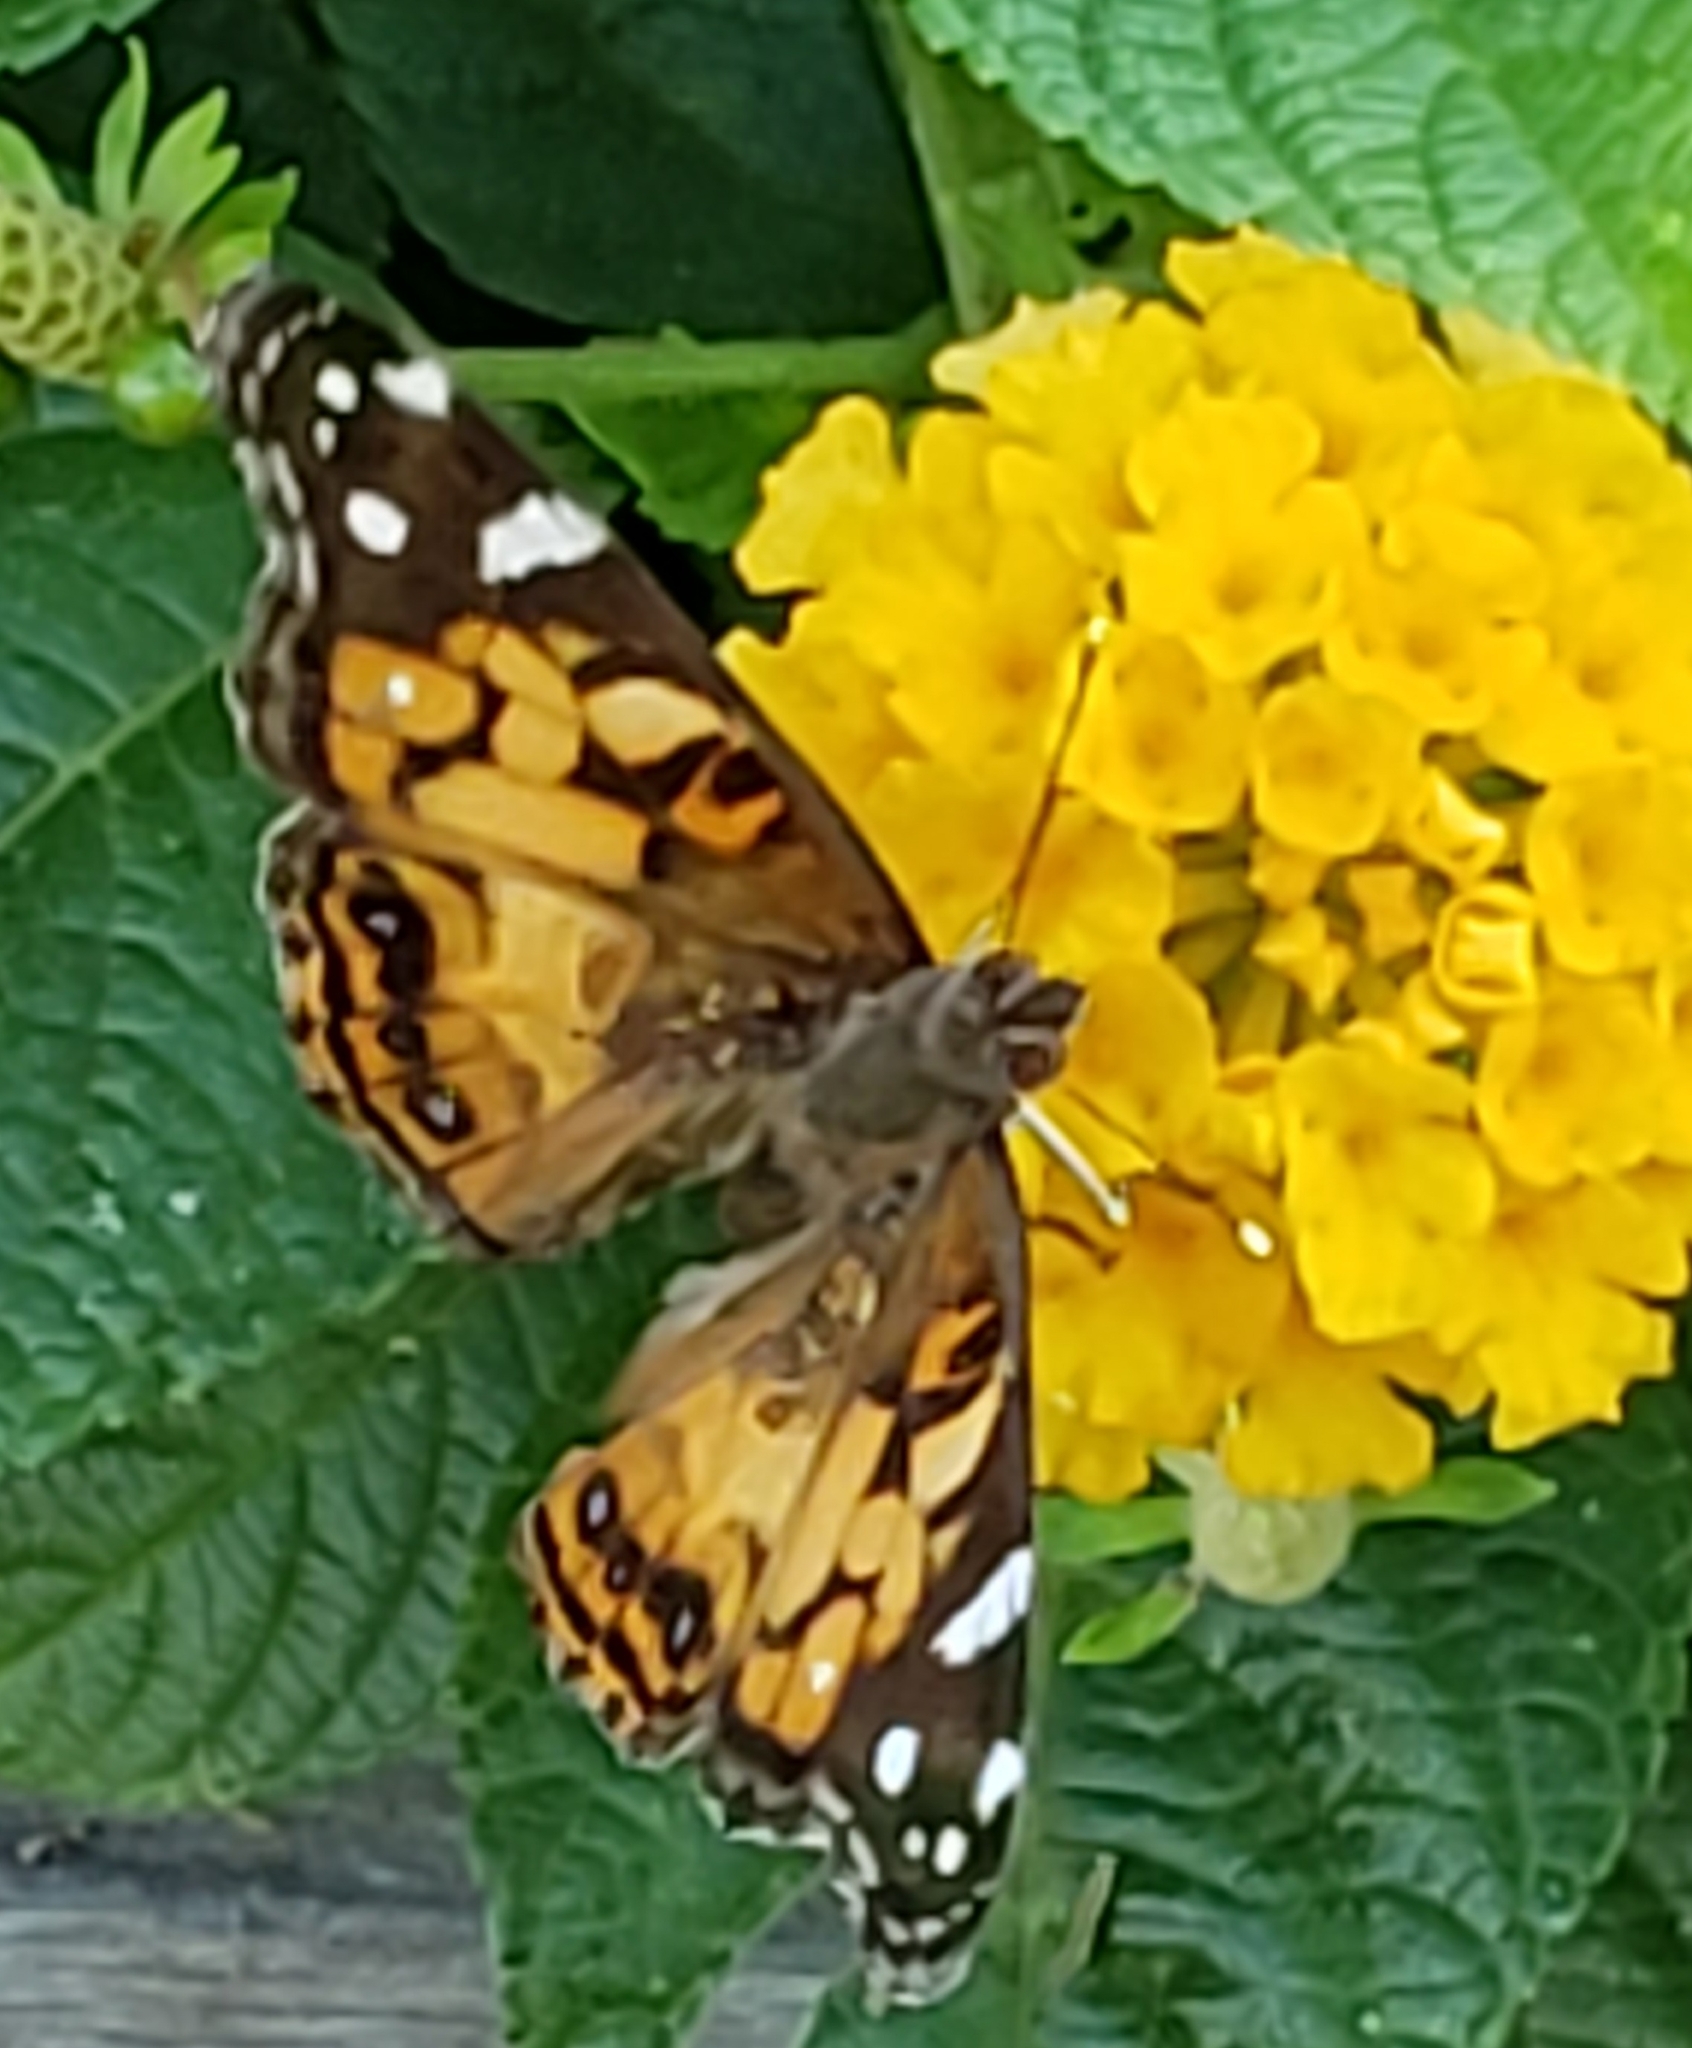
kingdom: Animalia
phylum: Arthropoda
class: Insecta
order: Lepidoptera
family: Nymphalidae
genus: Vanessa
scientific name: Vanessa virginiensis
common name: American lady
